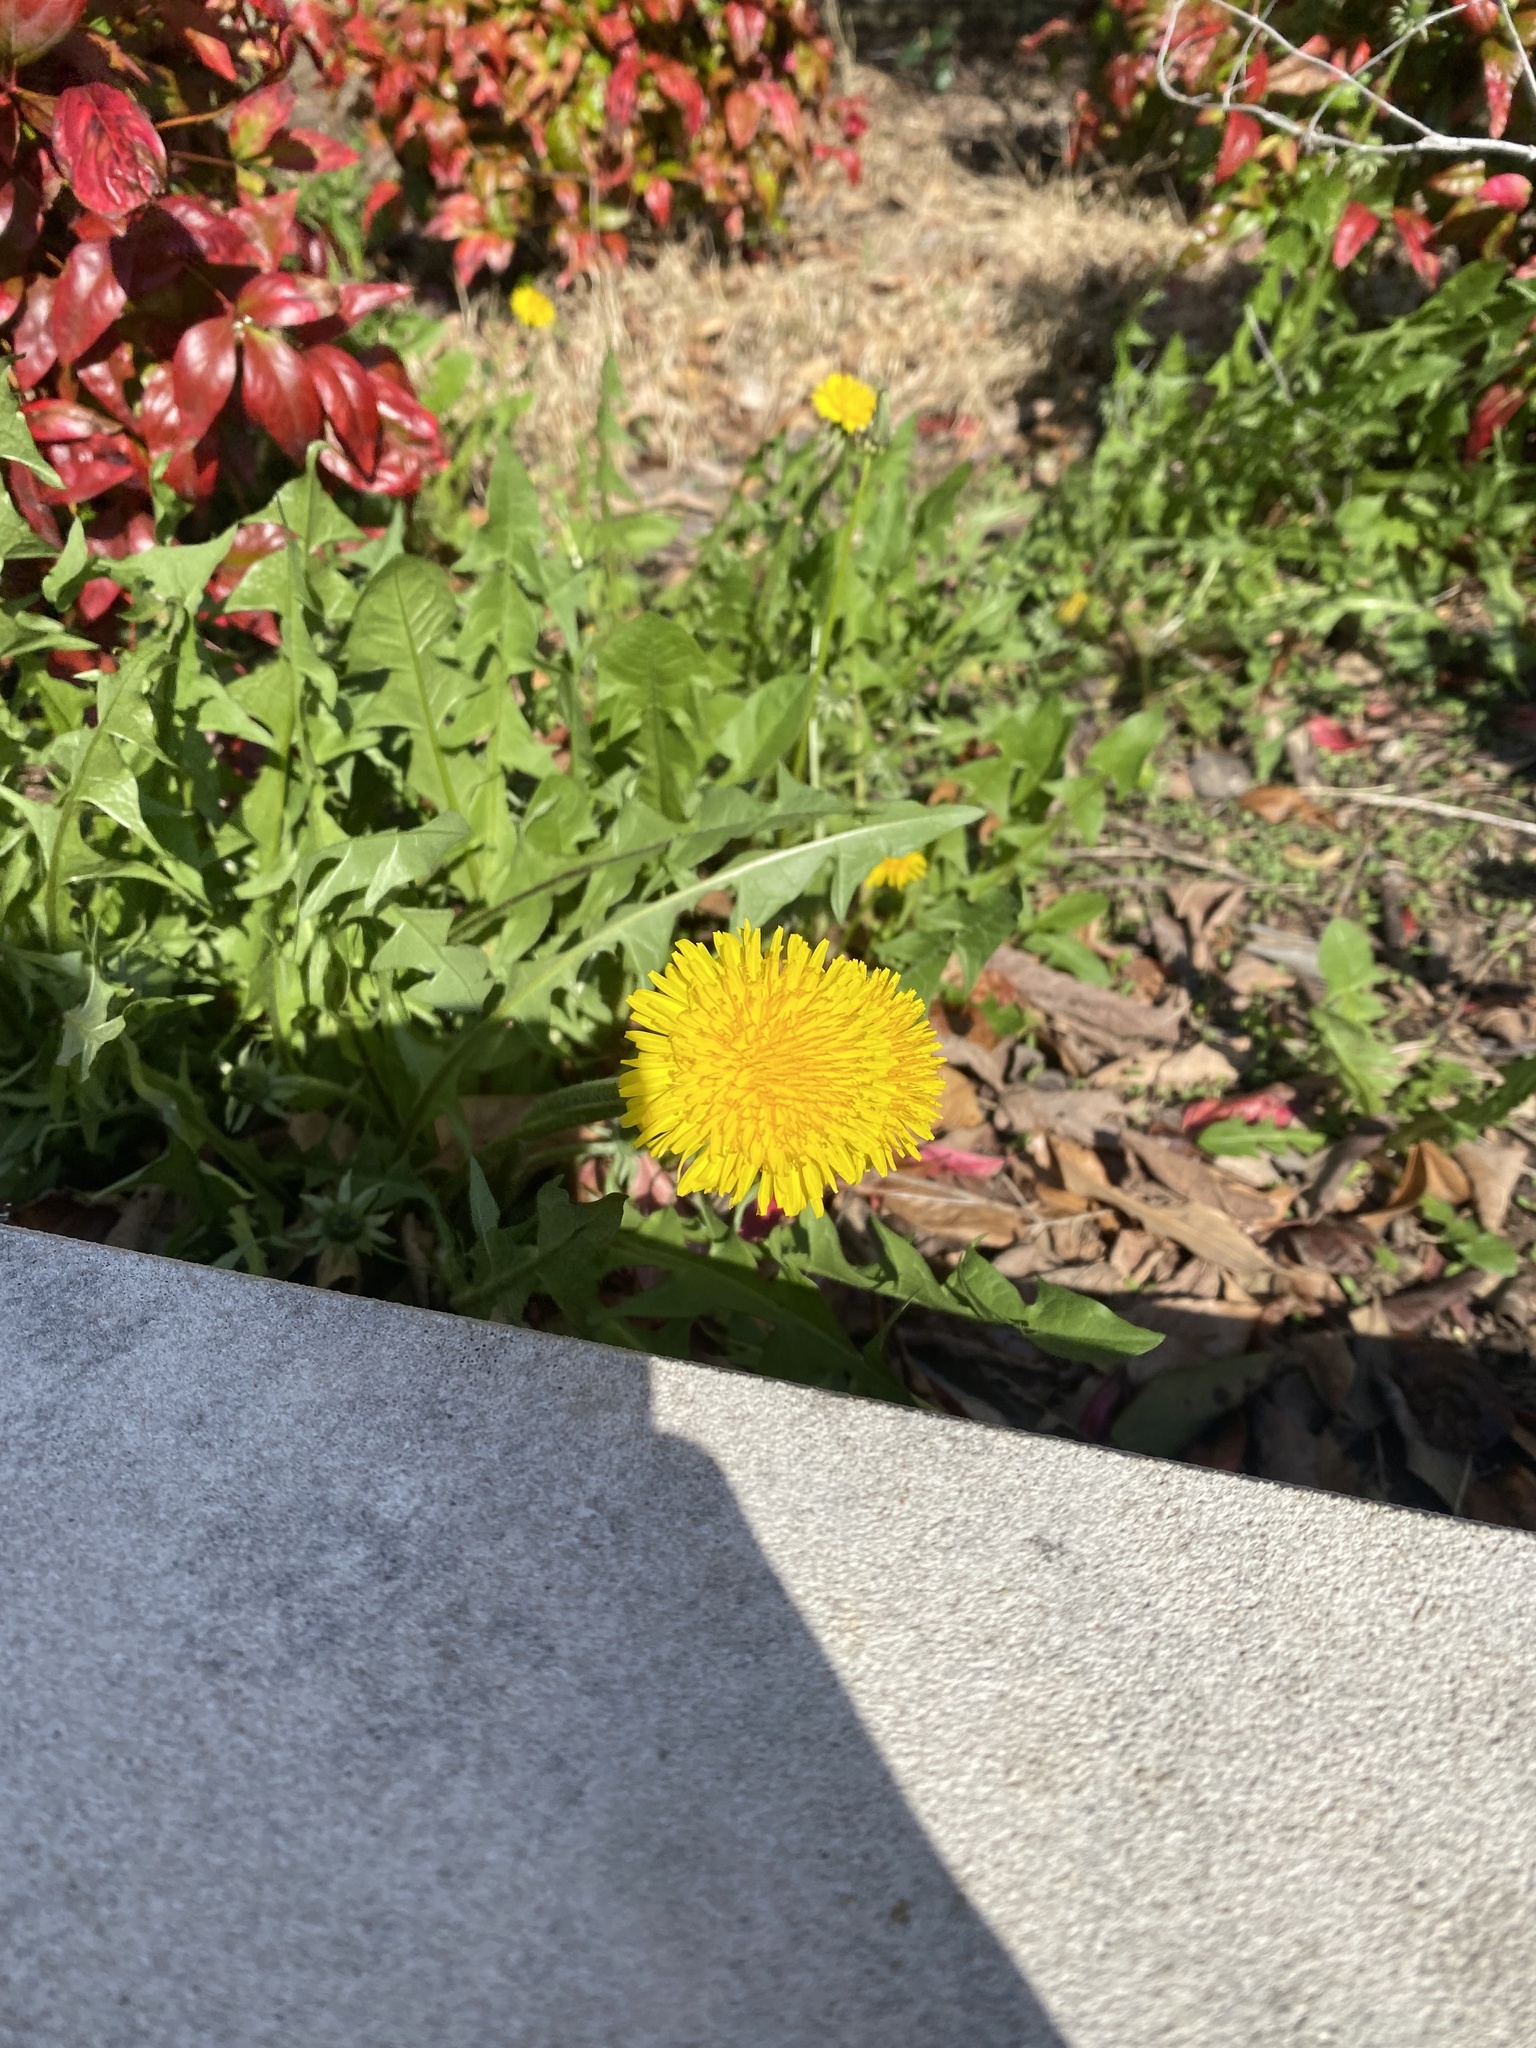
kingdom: Plantae
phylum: Tracheophyta
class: Magnoliopsida
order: Asterales
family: Asteraceae
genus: Taraxacum
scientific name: Taraxacum
